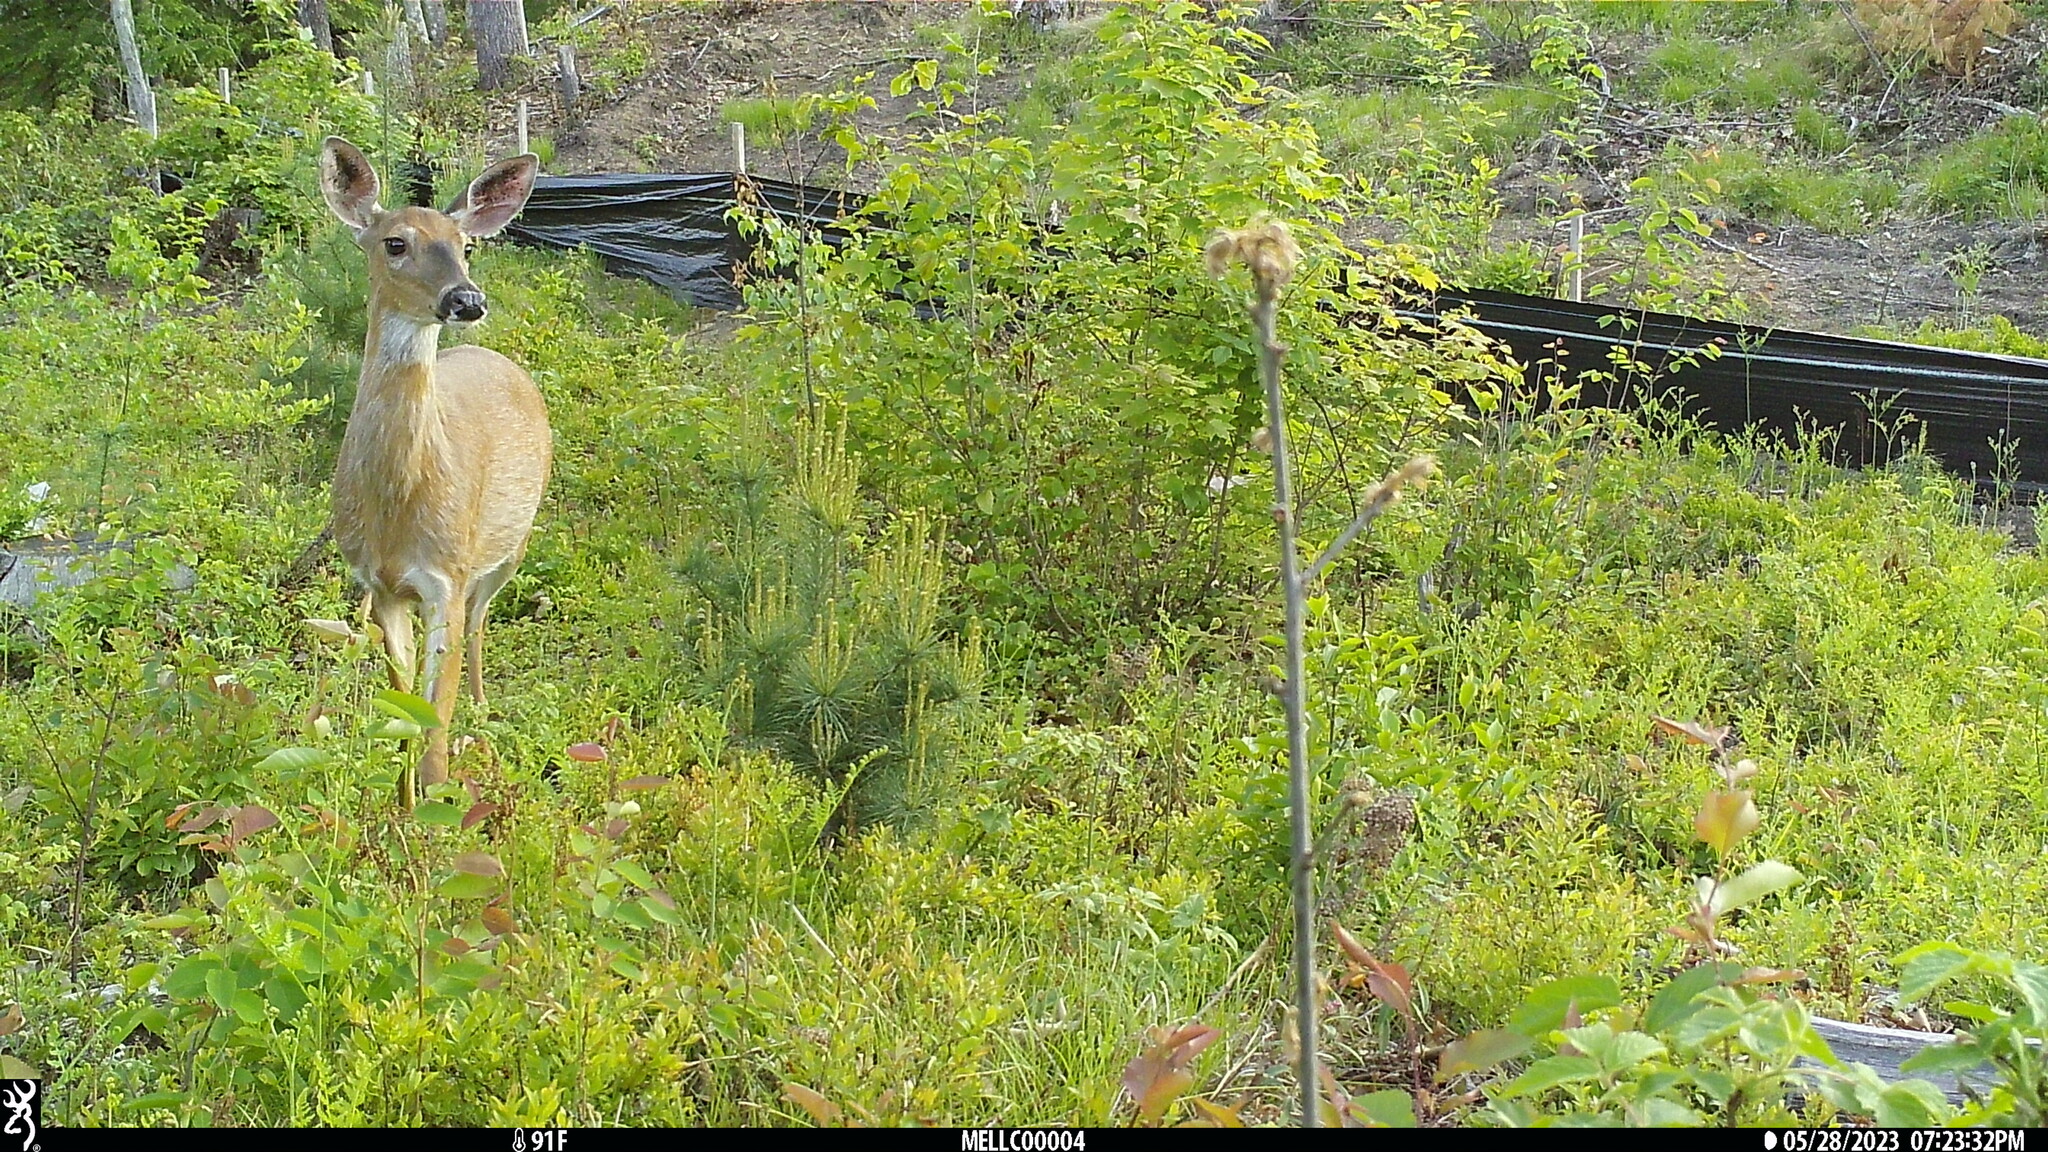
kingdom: Animalia
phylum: Chordata
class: Mammalia
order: Artiodactyla
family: Cervidae
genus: Odocoileus
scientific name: Odocoileus virginianus
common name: White-tailed deer
